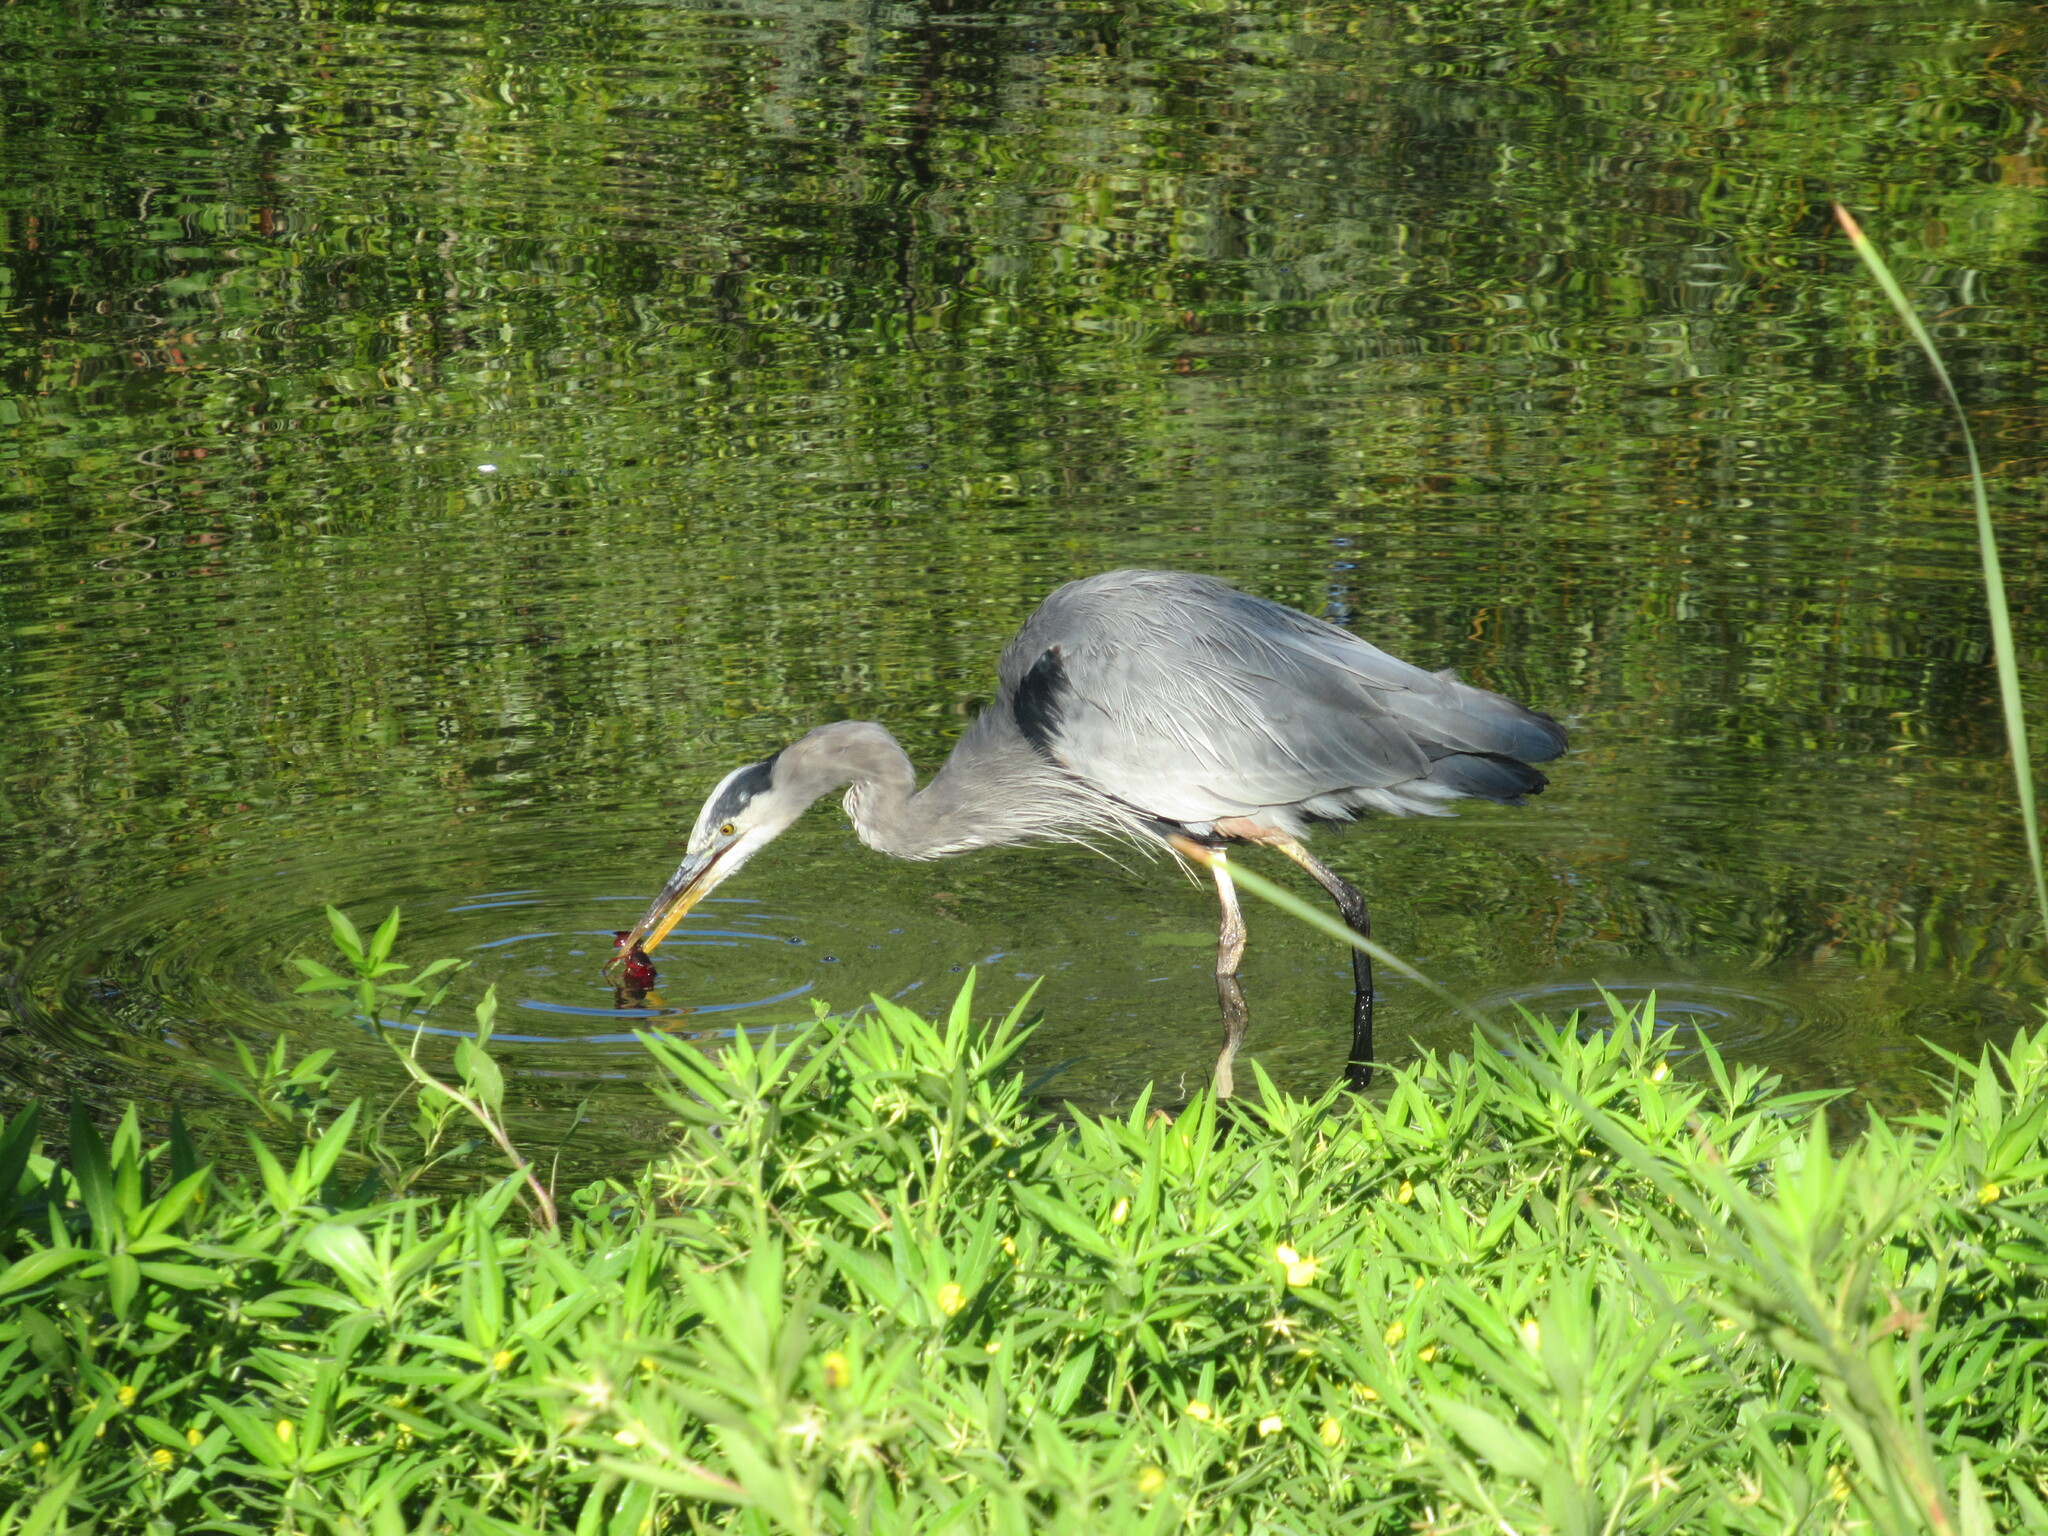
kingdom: Animalia
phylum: Chordata
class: Aves
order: Pelecaniformes
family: Ardeidae
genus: Ardea
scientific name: Ardea herodias
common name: Great blue heron
